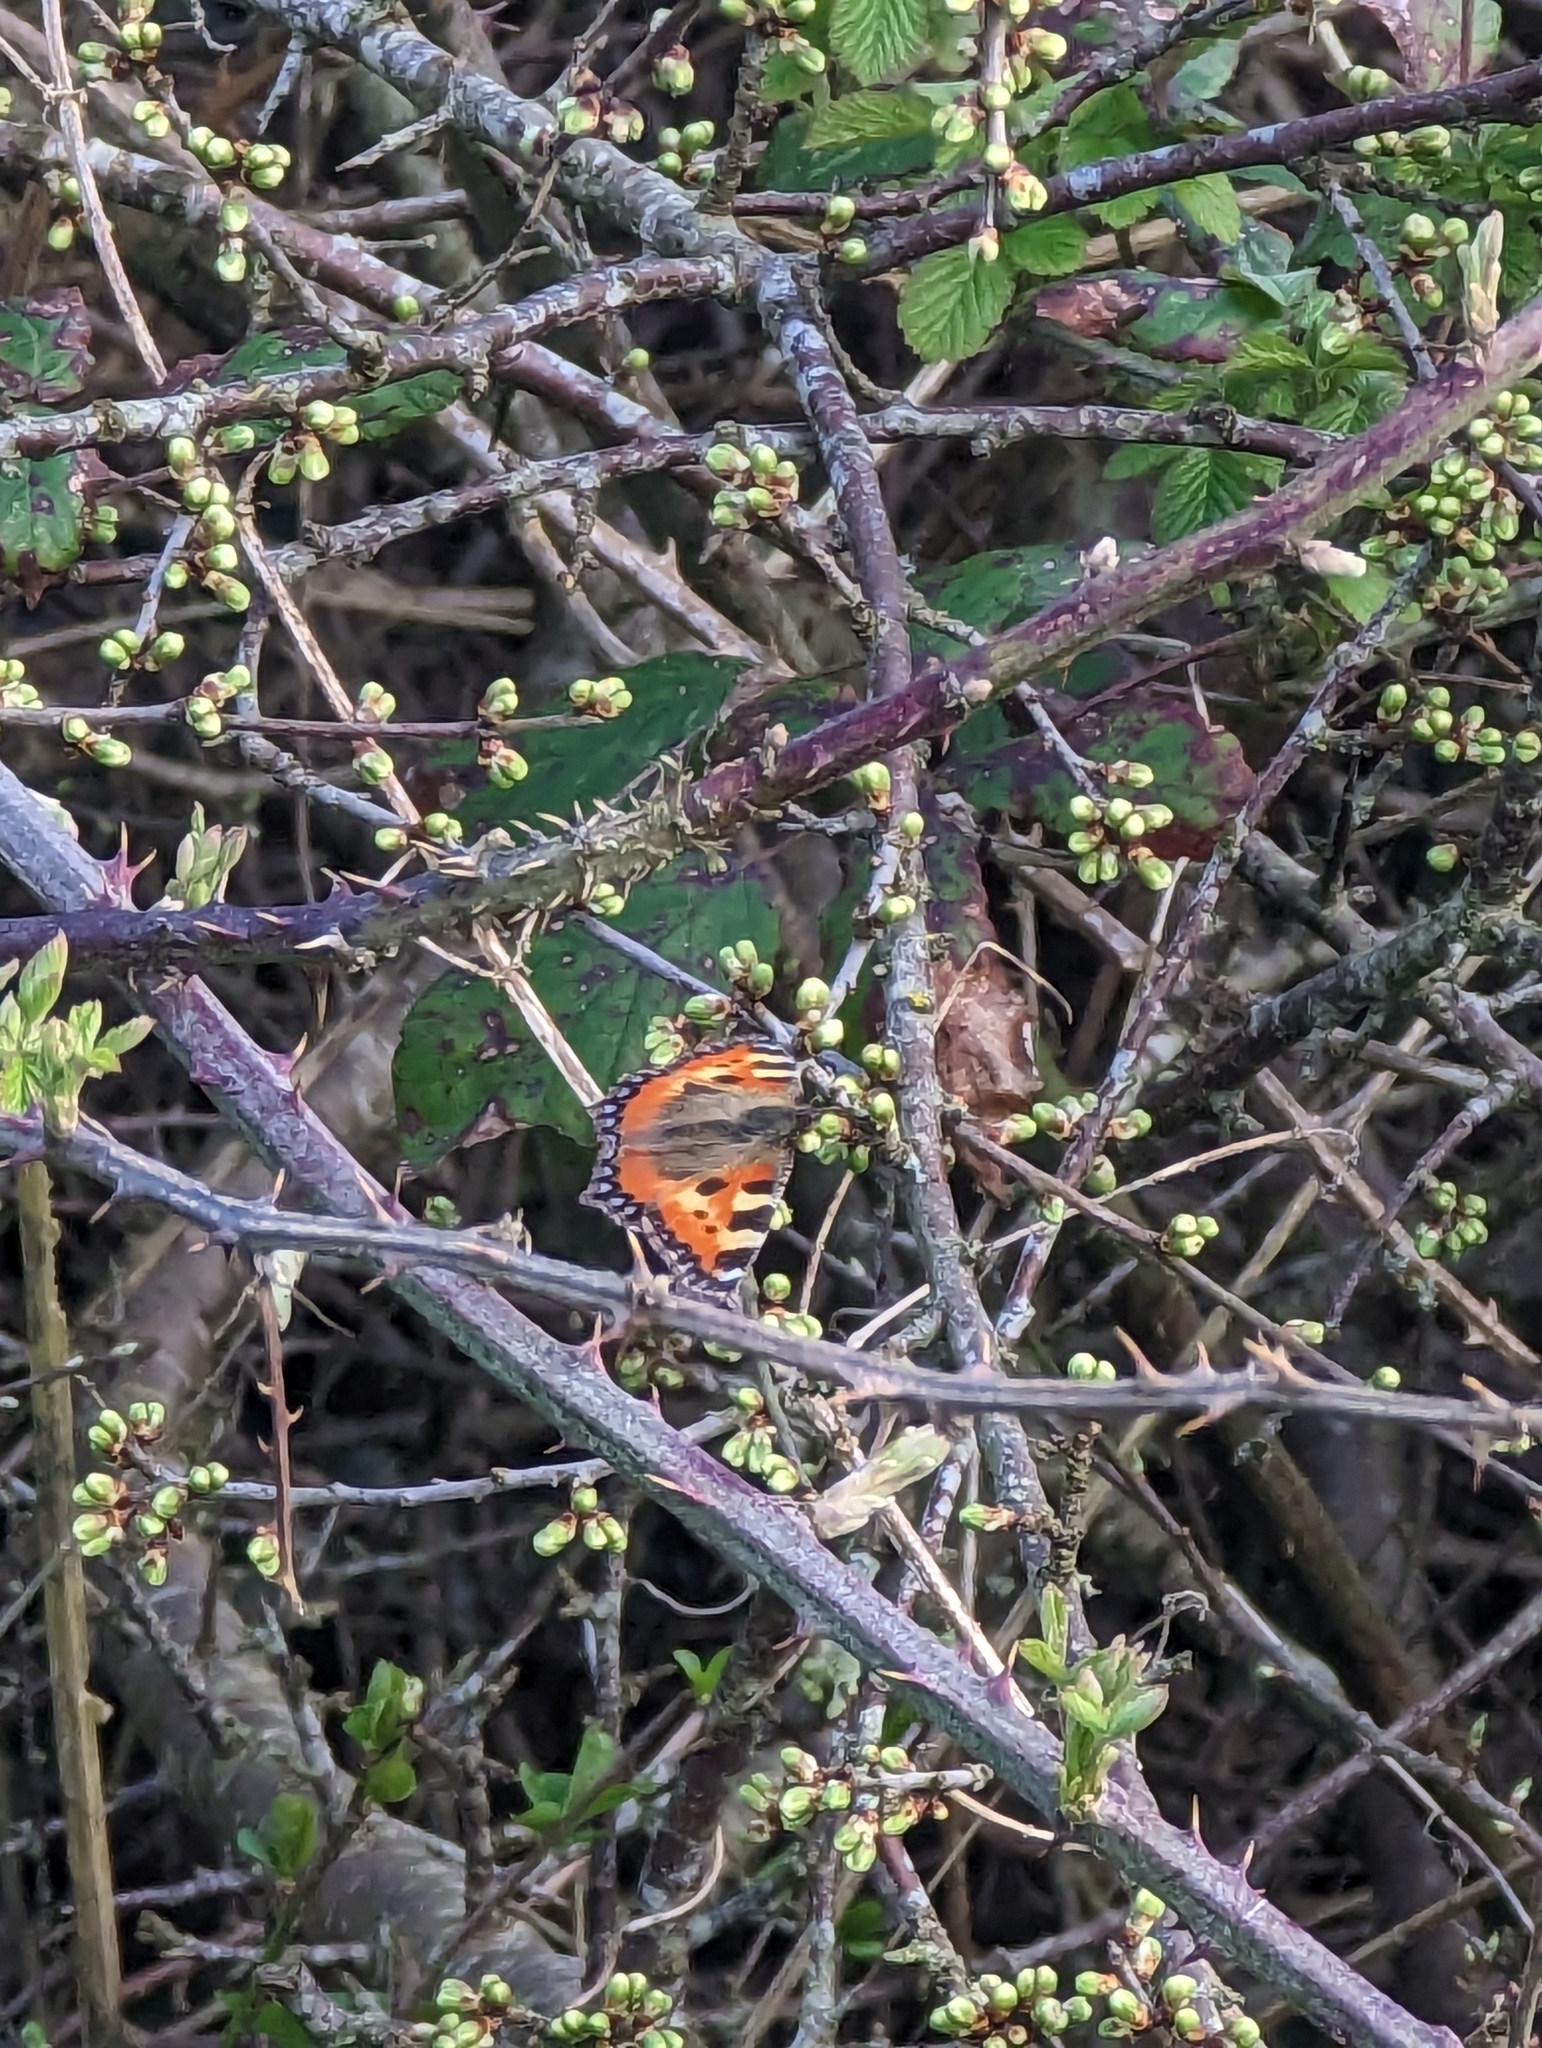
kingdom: Animalia
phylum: Arthropoda
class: Insecta
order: Lepidoptera
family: Nymphalidae
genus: Aglais
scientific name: Aglais urticae
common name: Small tortoiseshell
